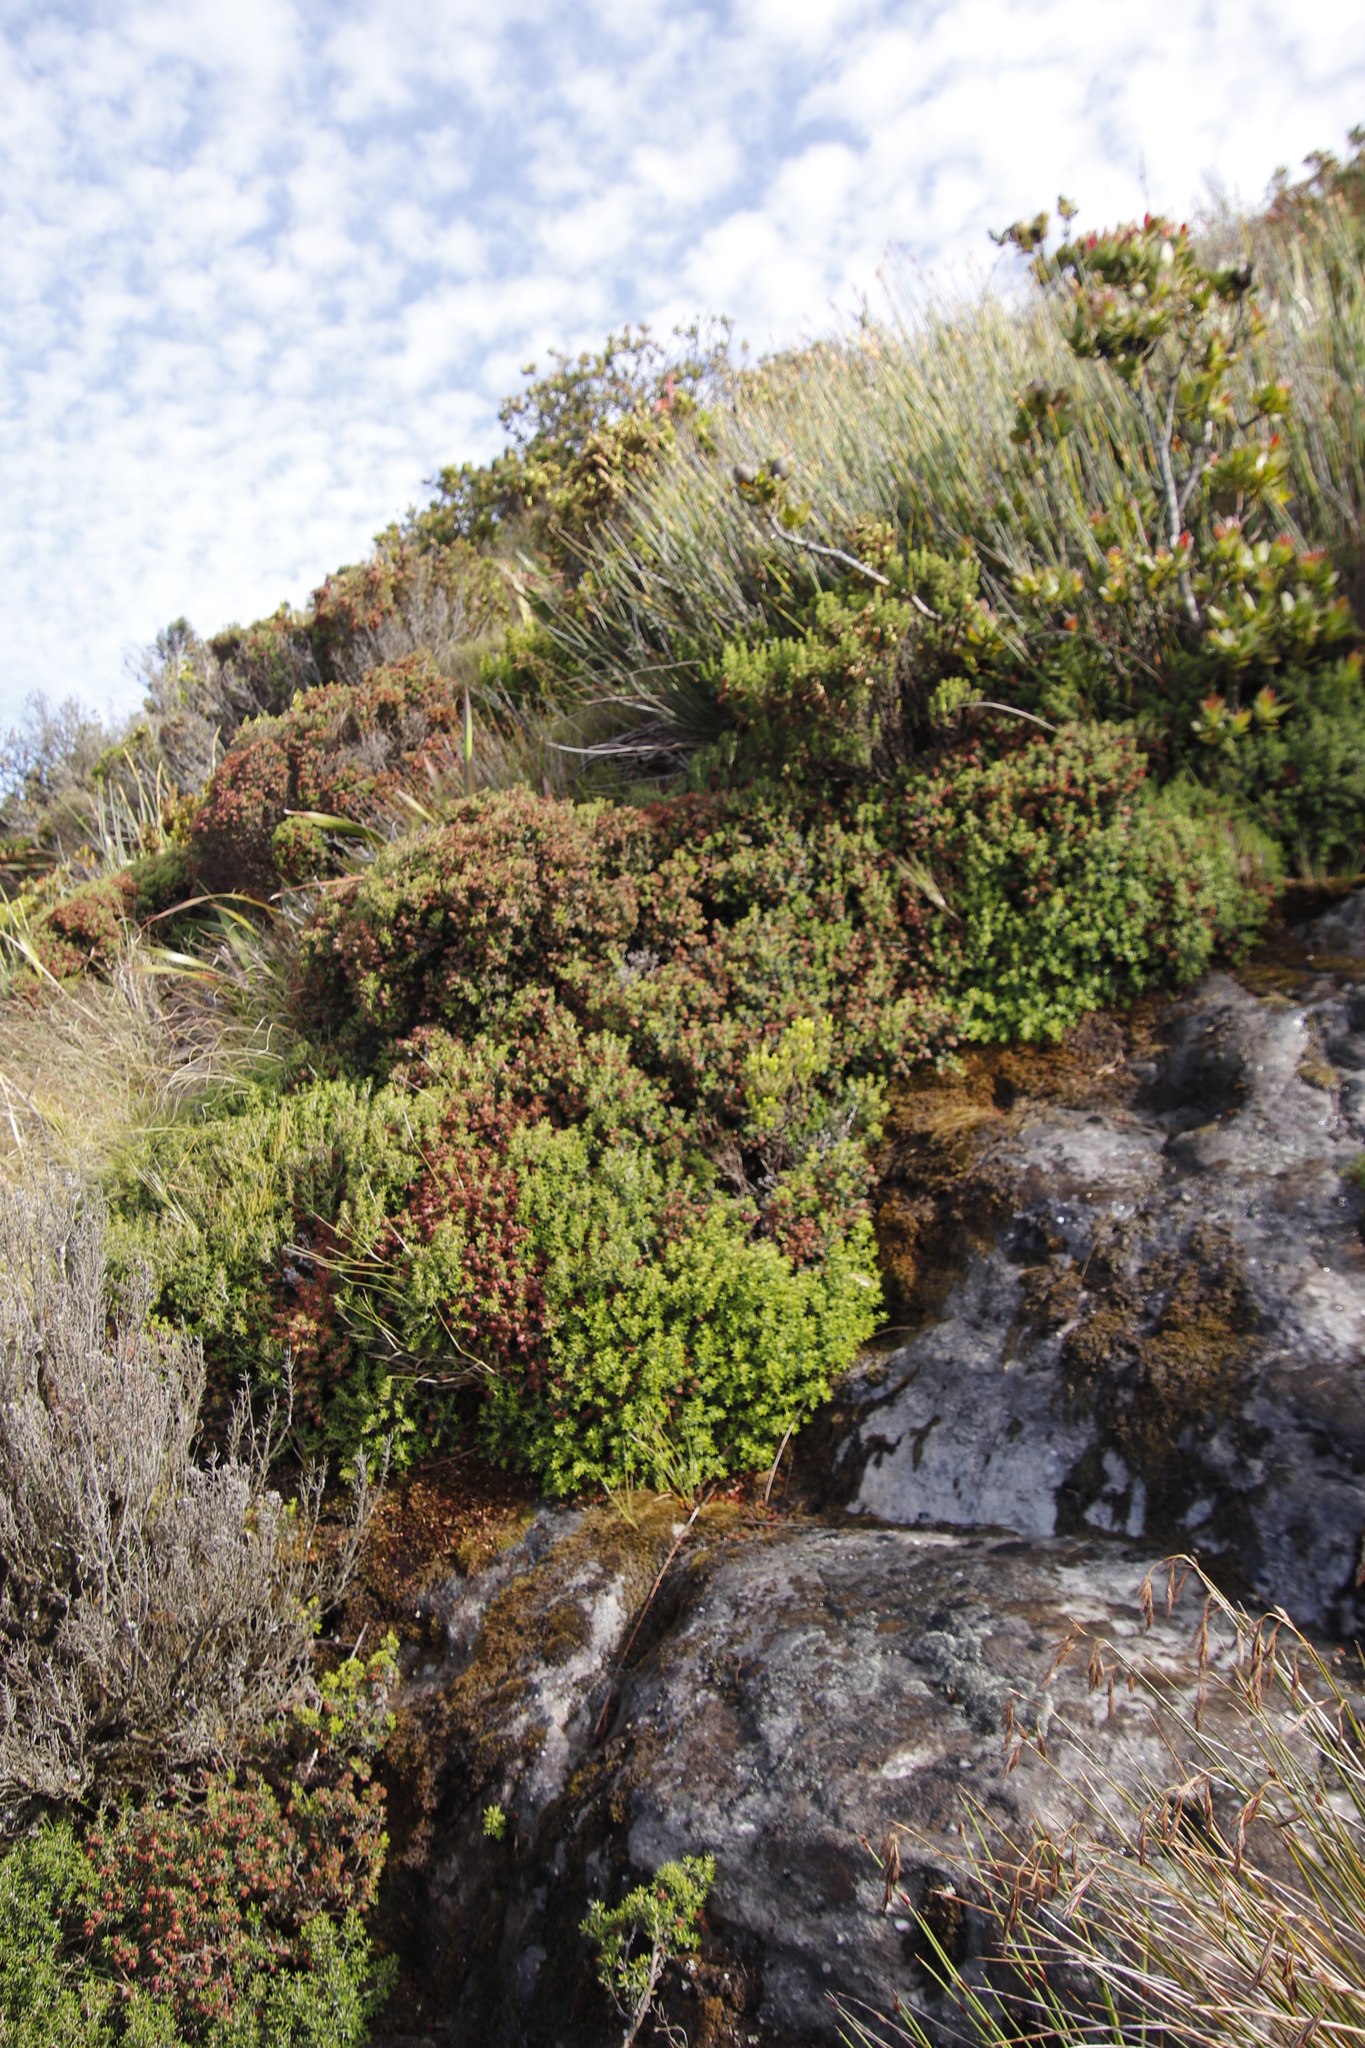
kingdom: Plantae
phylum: Tracheophyta
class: Magnoliopsida
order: Ericales
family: Ericaceae
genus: Erica
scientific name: Erica petiolaris
